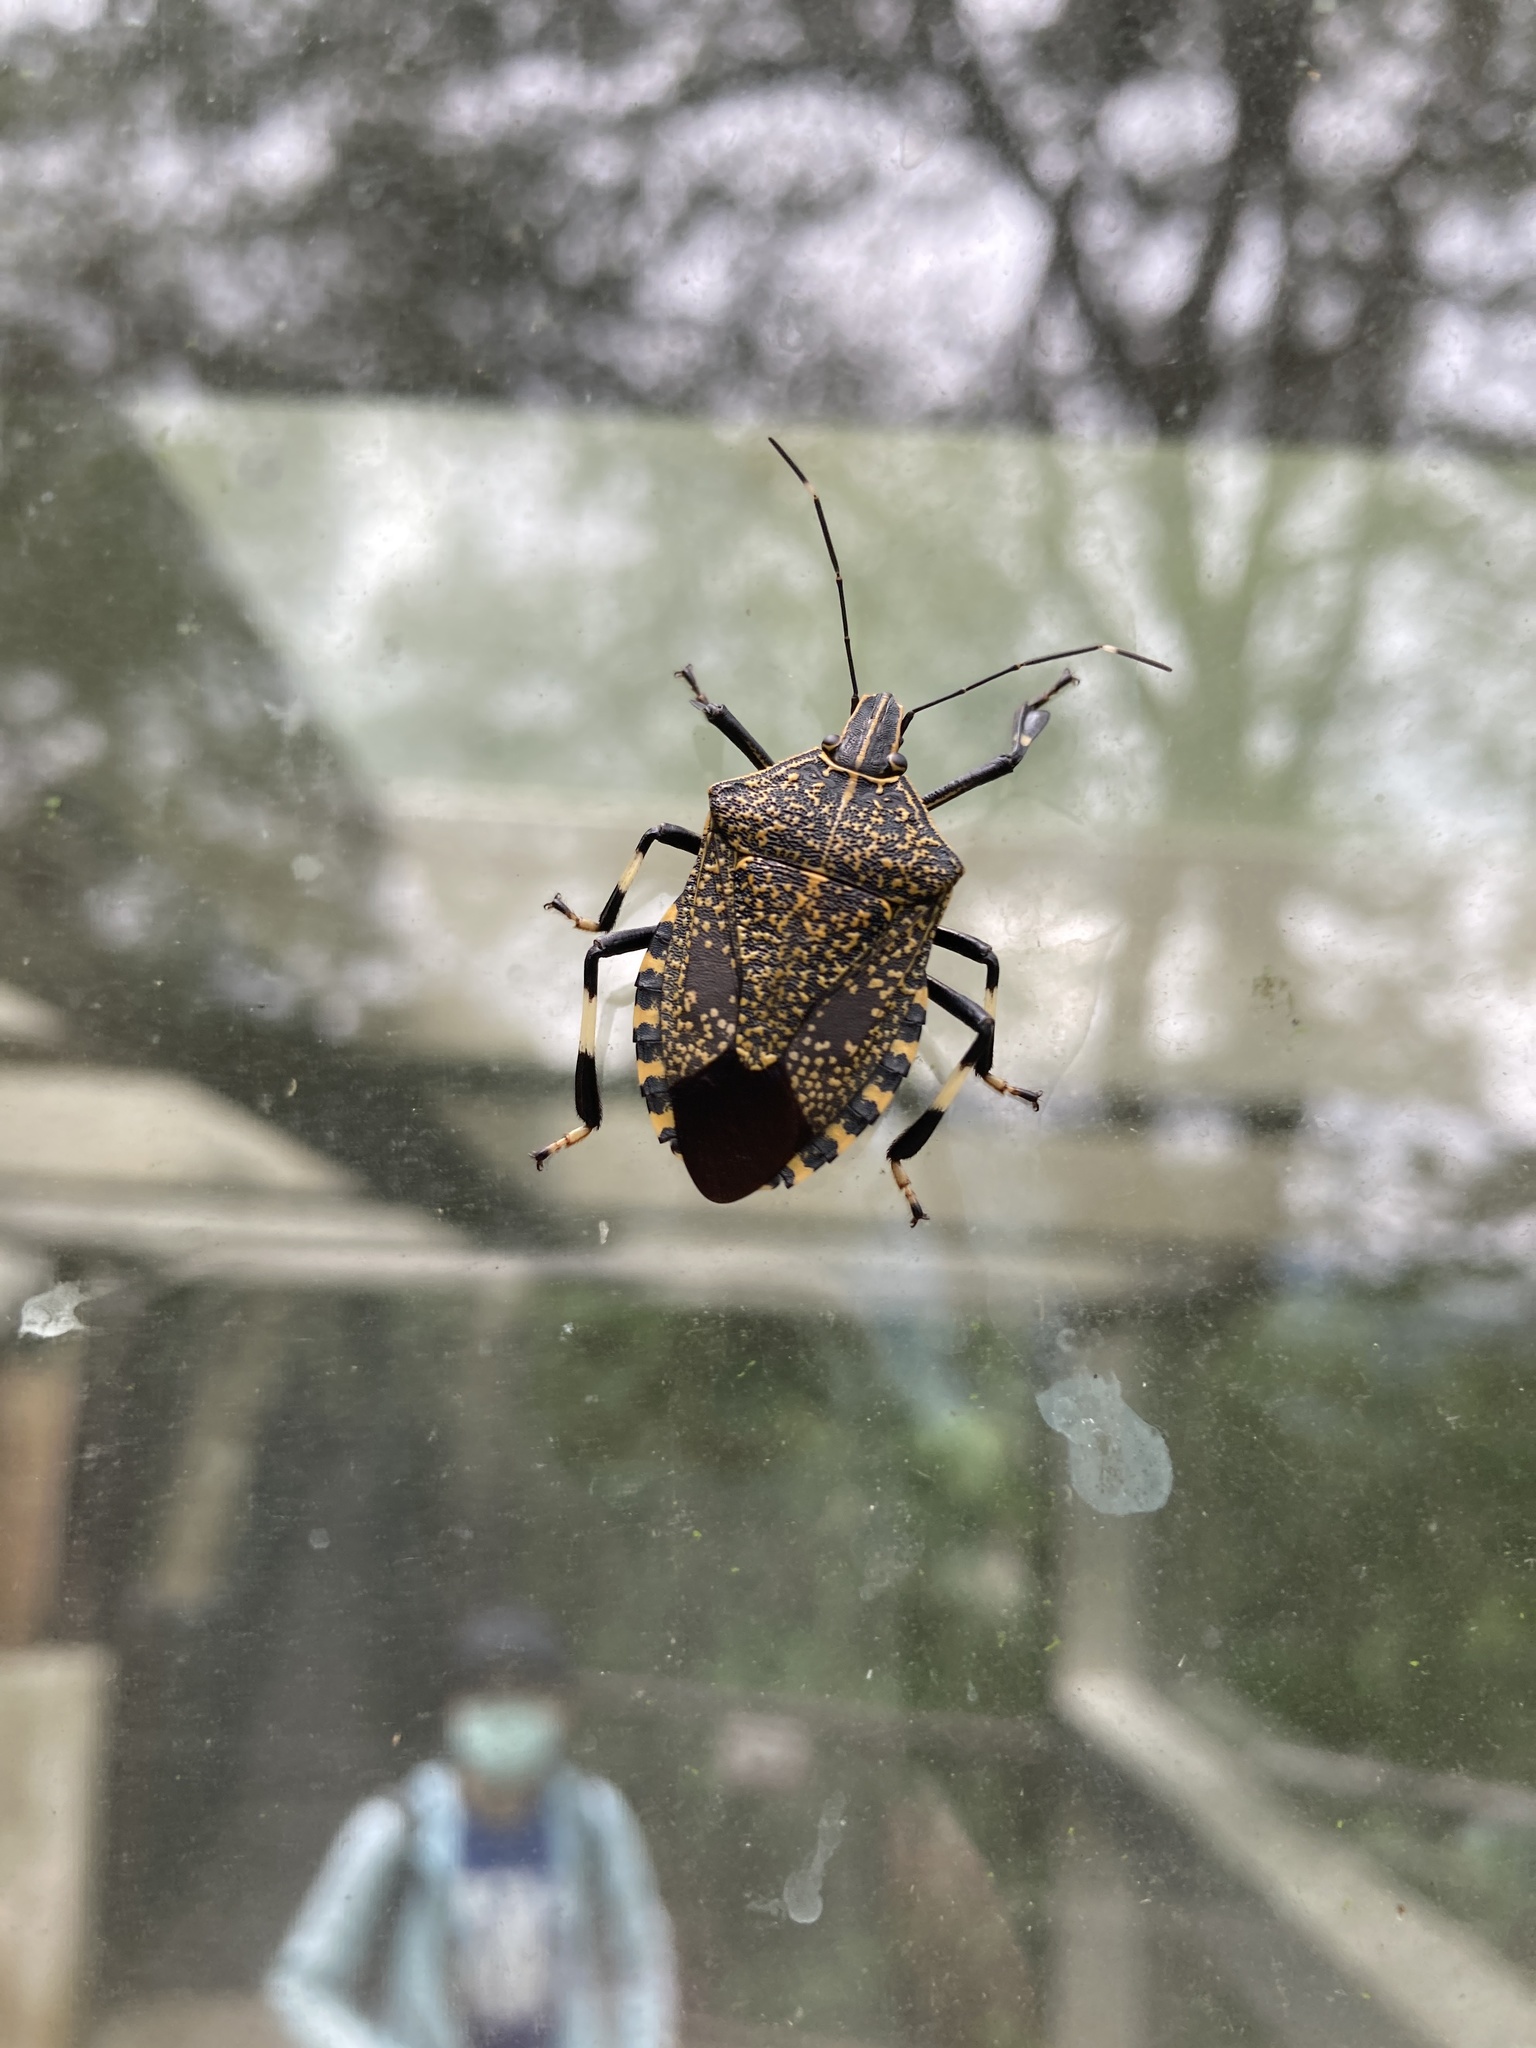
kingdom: Animalia
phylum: Arthropoda
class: Insecta
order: Hemiptera
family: Pentatomidae
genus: Erthesina
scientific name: Erthesina fullo
